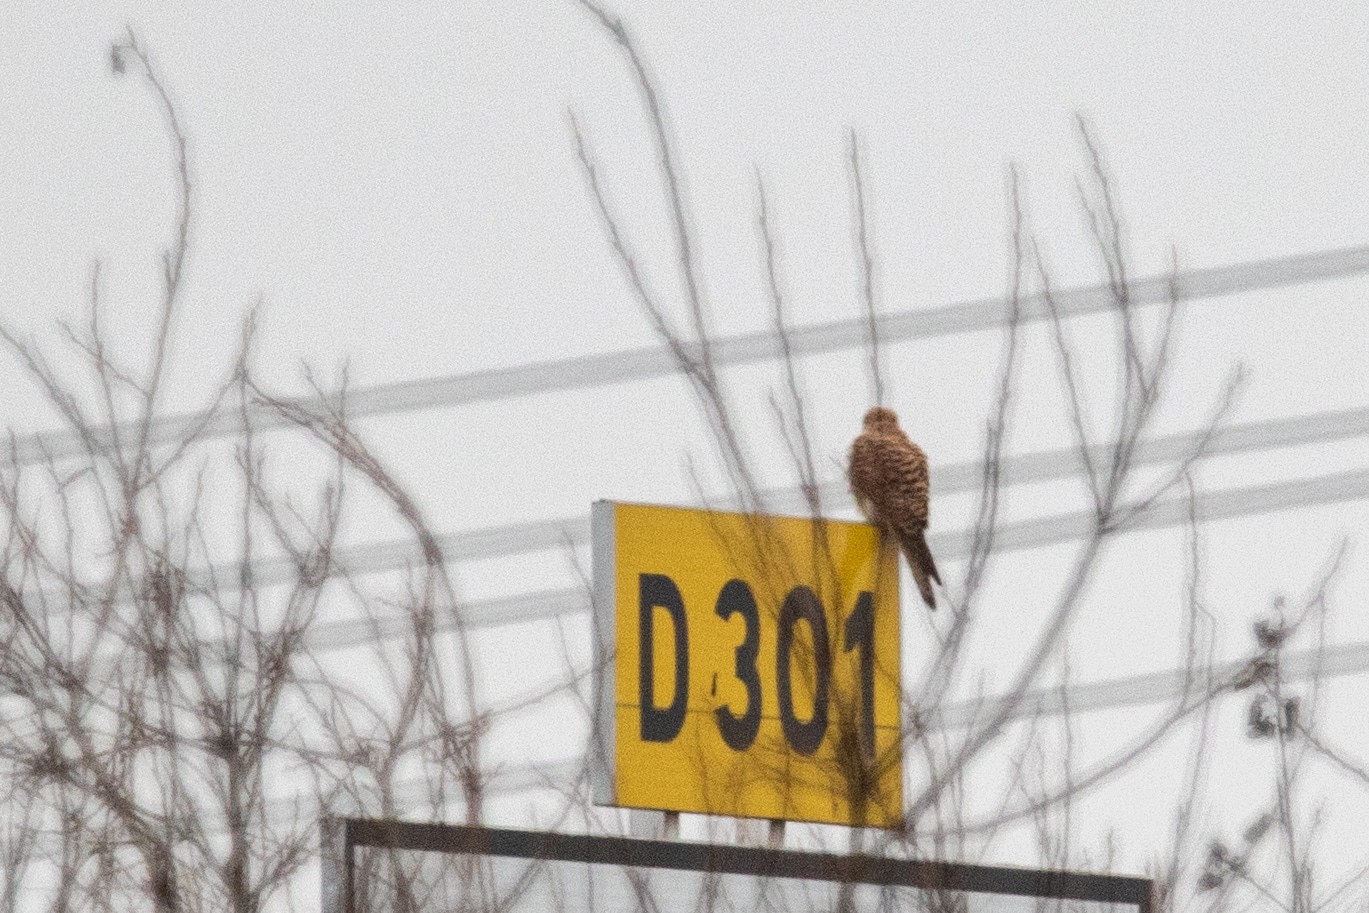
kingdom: Animalia
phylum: Chordata
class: Aves
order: Falconiformes
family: Falconidae
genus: Falco
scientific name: Falco tinnunculus
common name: Common kestrel
